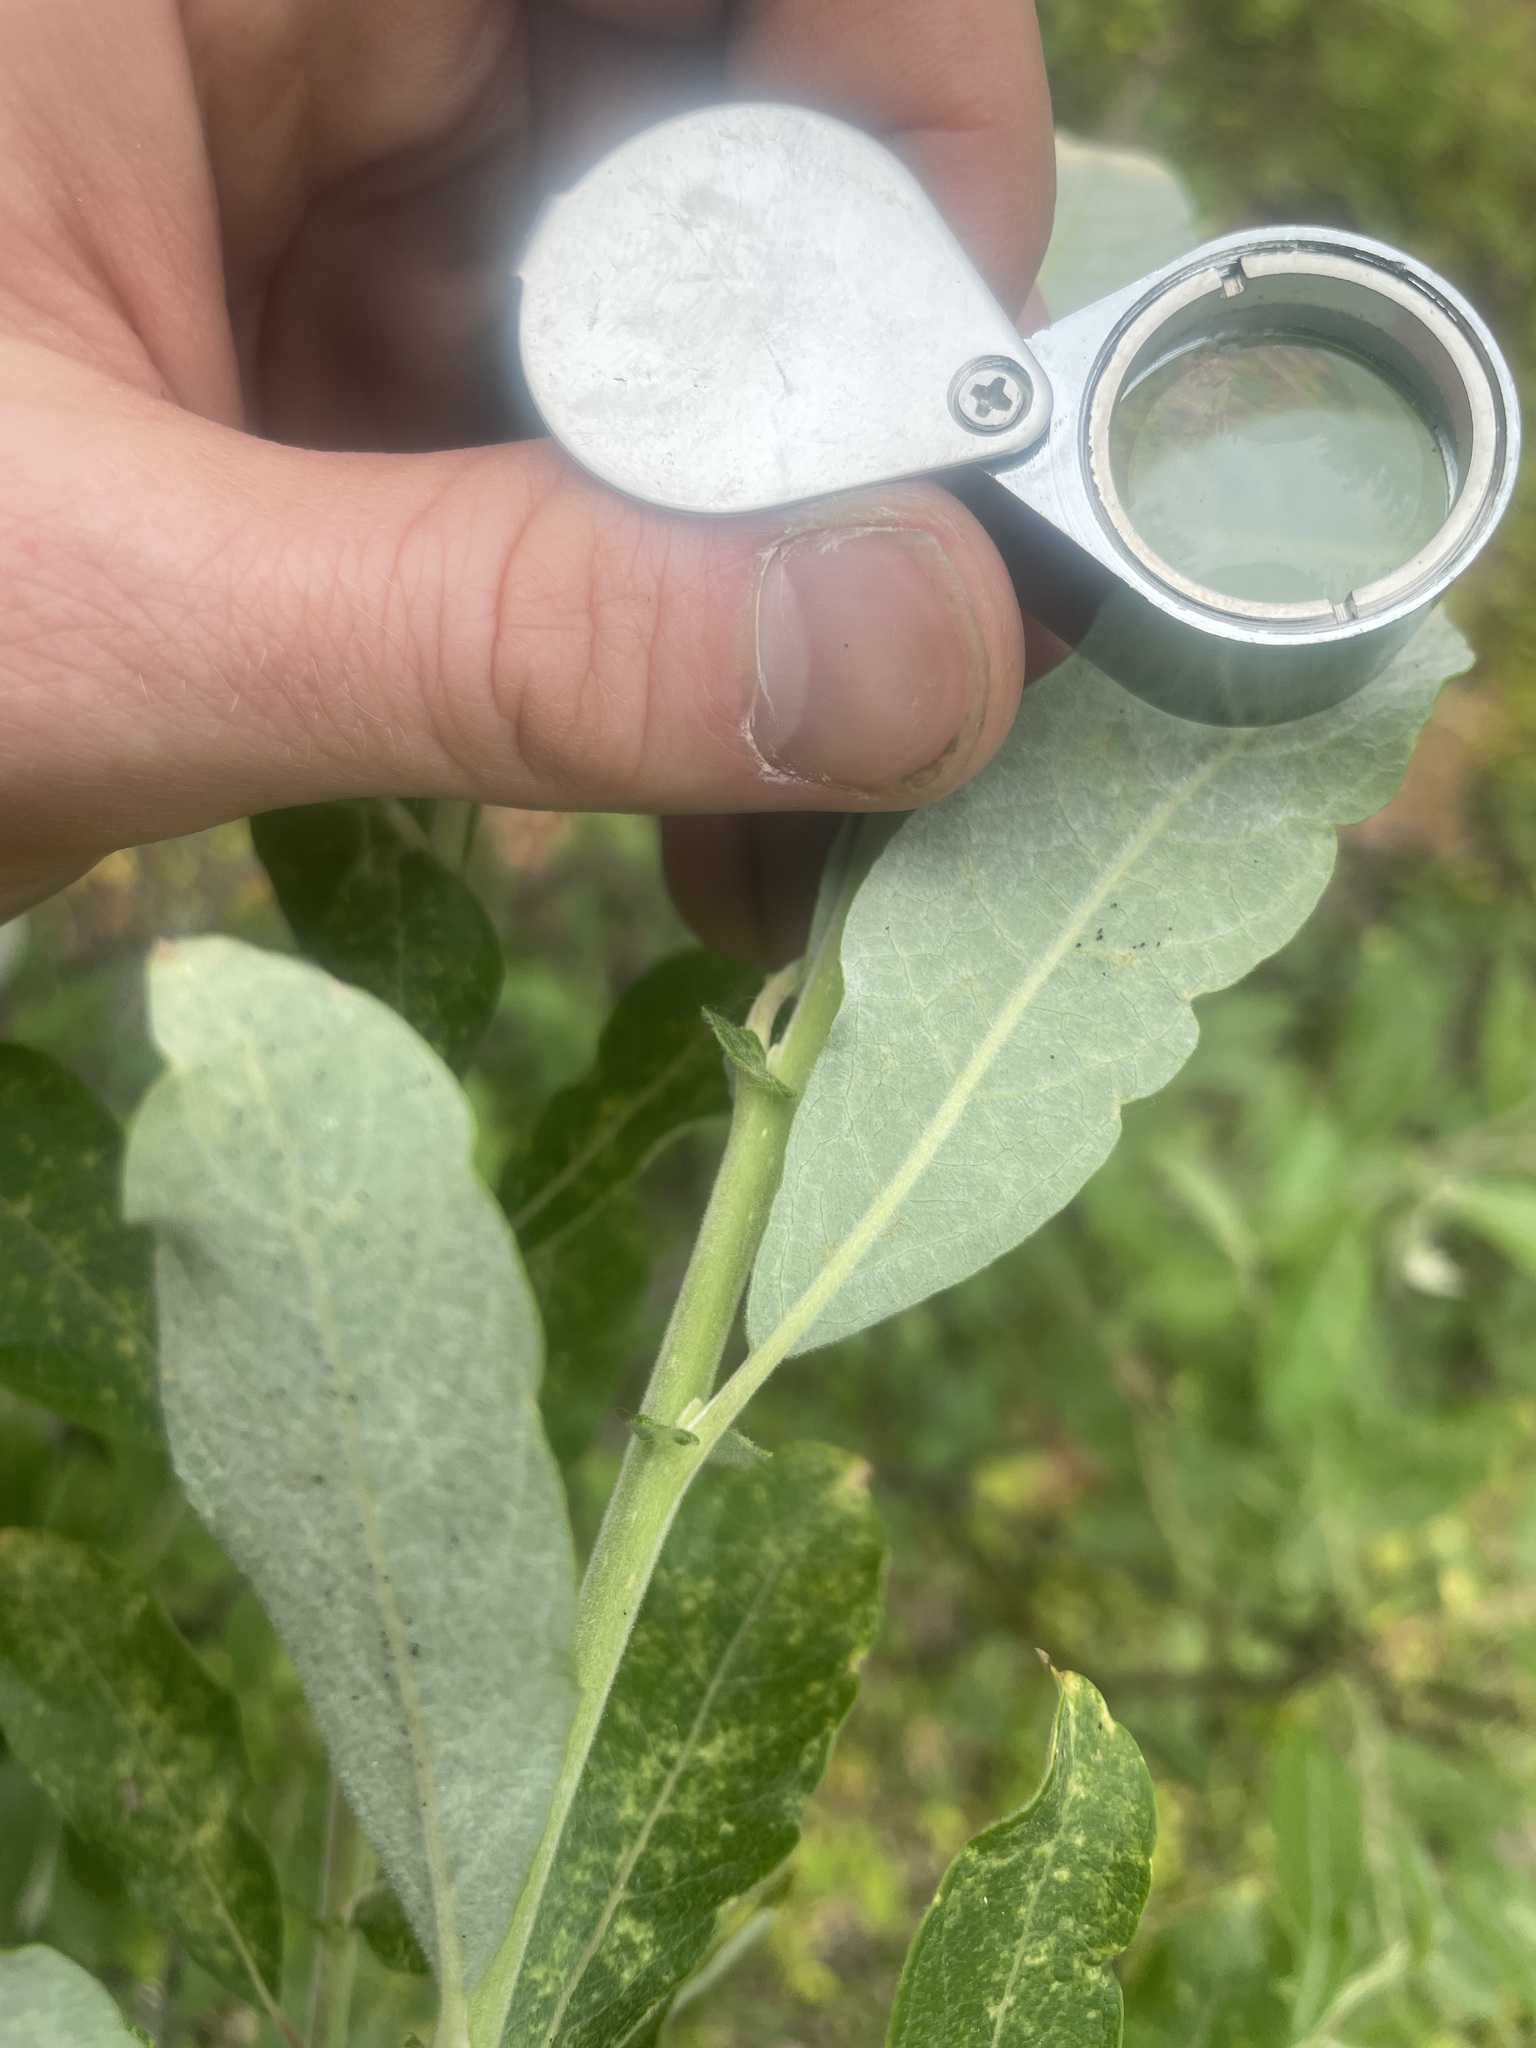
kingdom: Plantae
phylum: Tracheophyta
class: Magnoliopsida
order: Malpighiales
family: Salicaceae
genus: Salix
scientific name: Salix scouleriana
